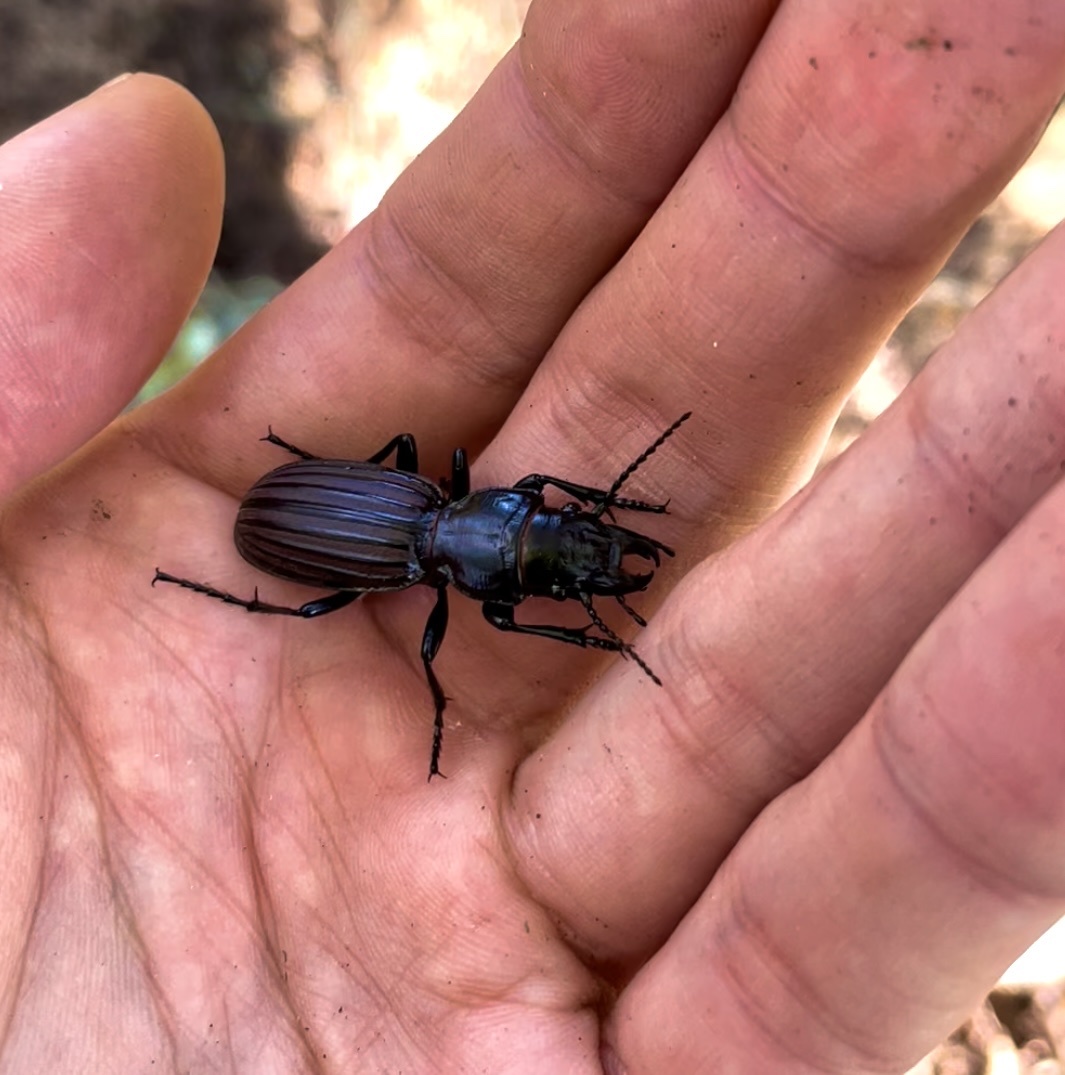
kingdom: Animalia
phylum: Arthropoda
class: Insecta
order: Coleoptera
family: Carabidae
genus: Mecodema
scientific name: Mecodema chiltoni
